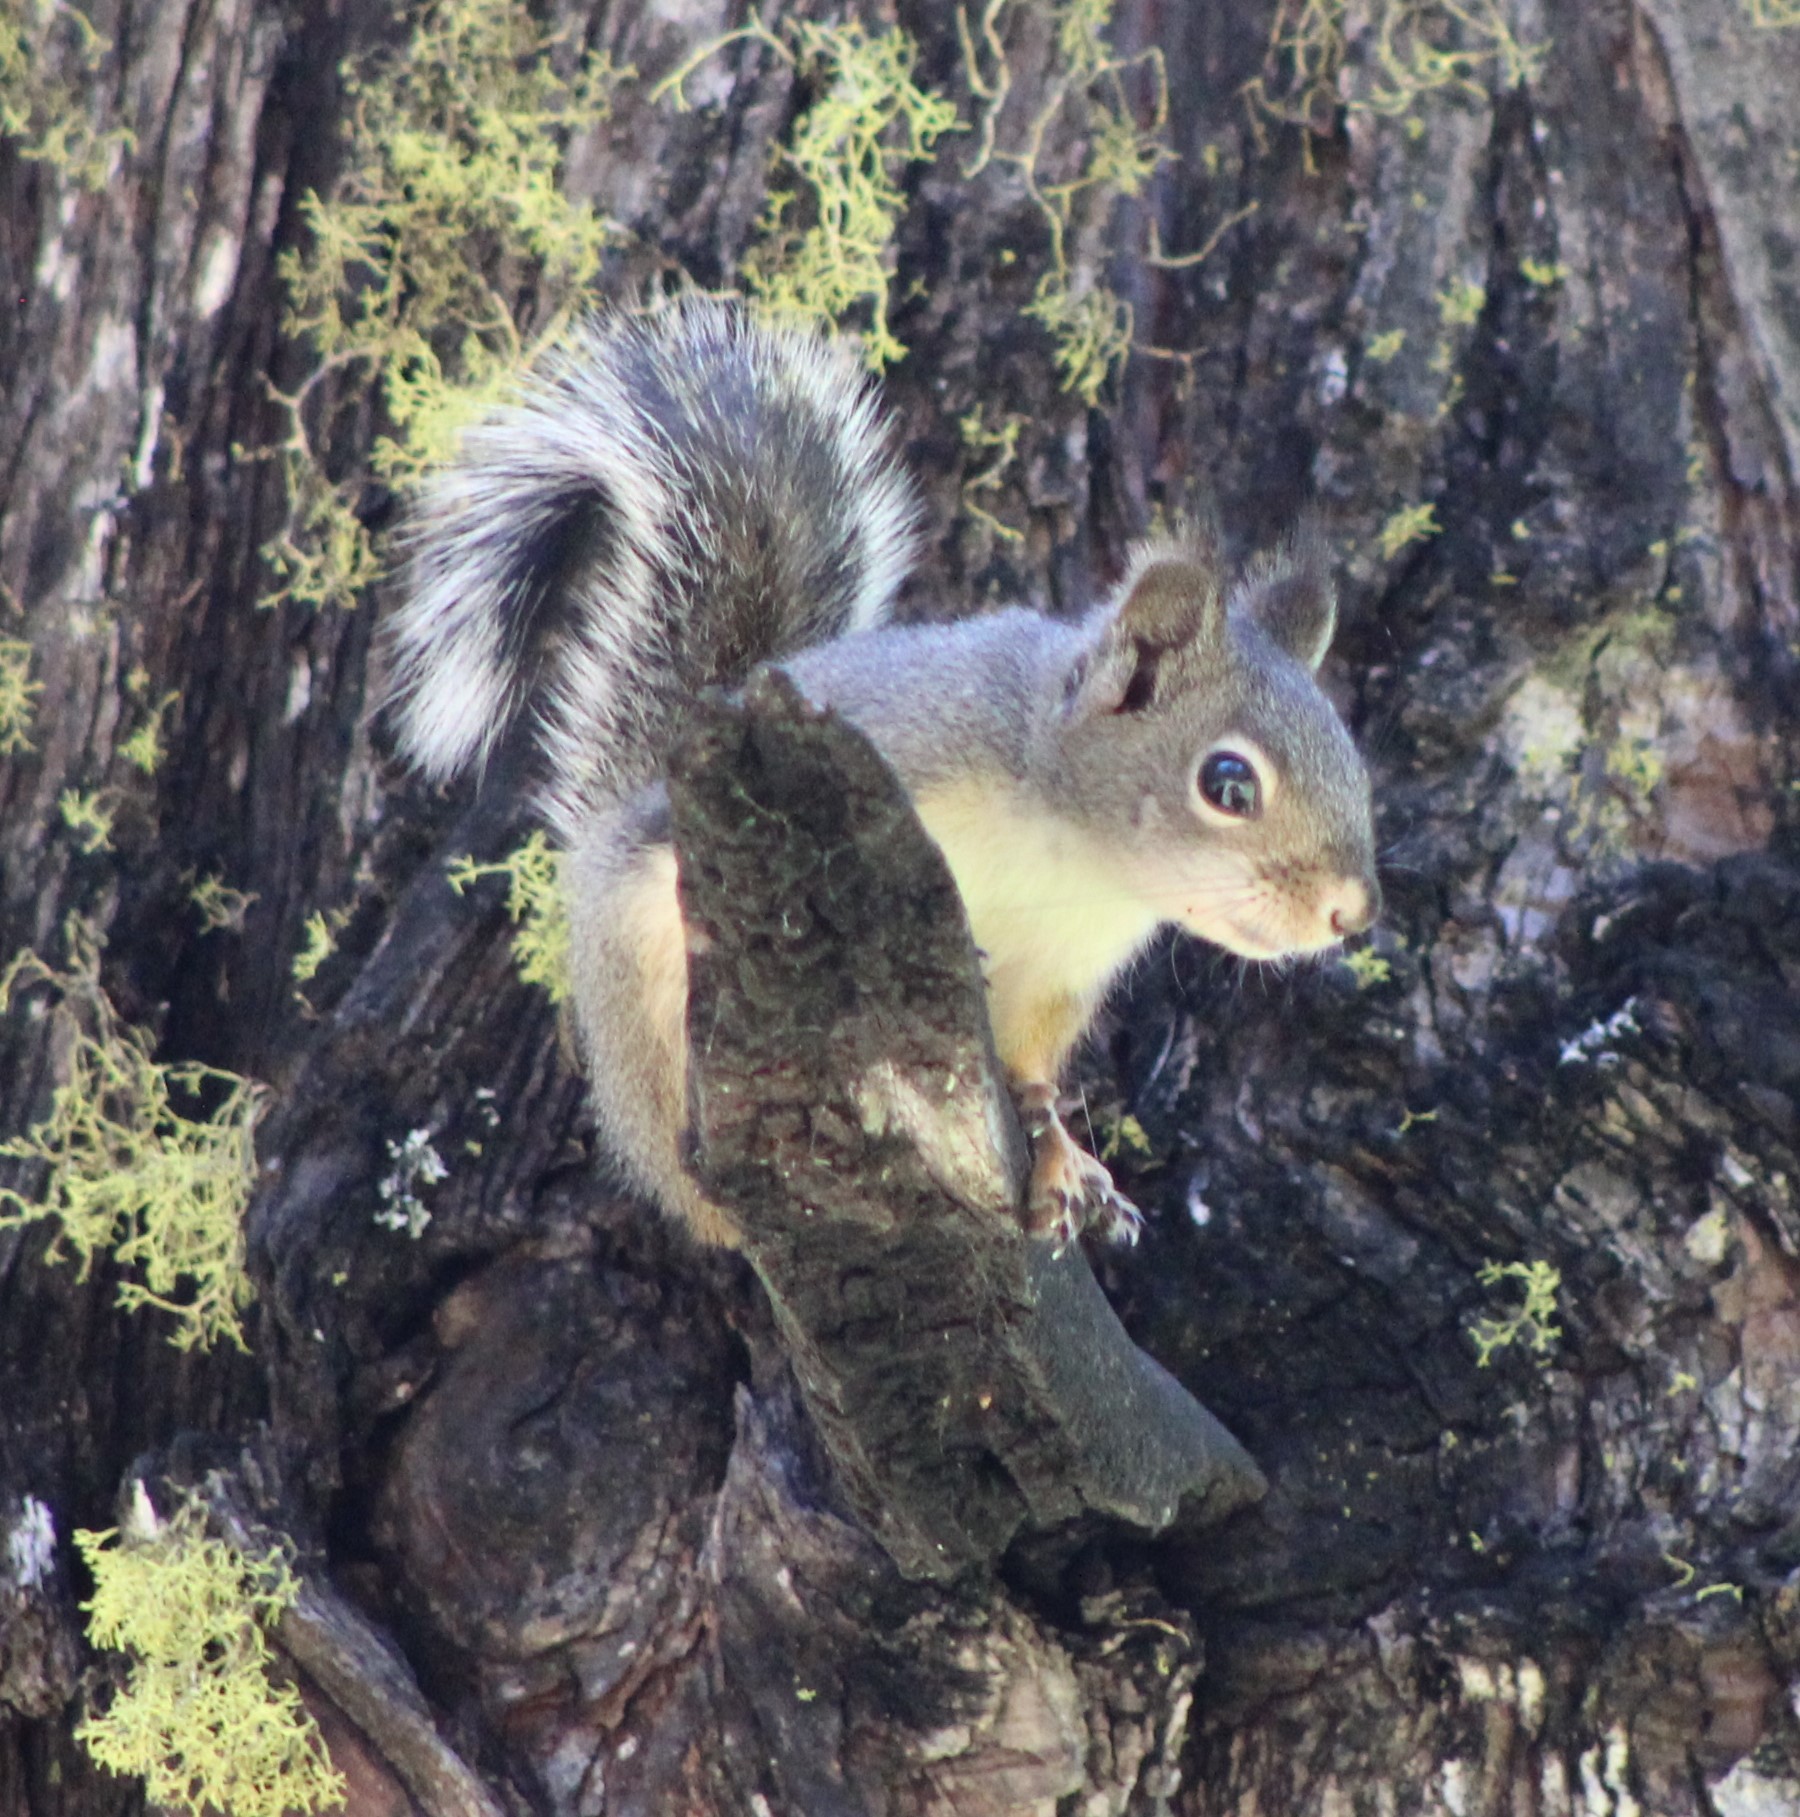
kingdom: Animalia
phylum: Chordata
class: Mammalia
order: Rodentia
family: Sciuridae
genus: Tamiasciurus
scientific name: Tamiasciurus douglasii
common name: Douglas's squirrel
